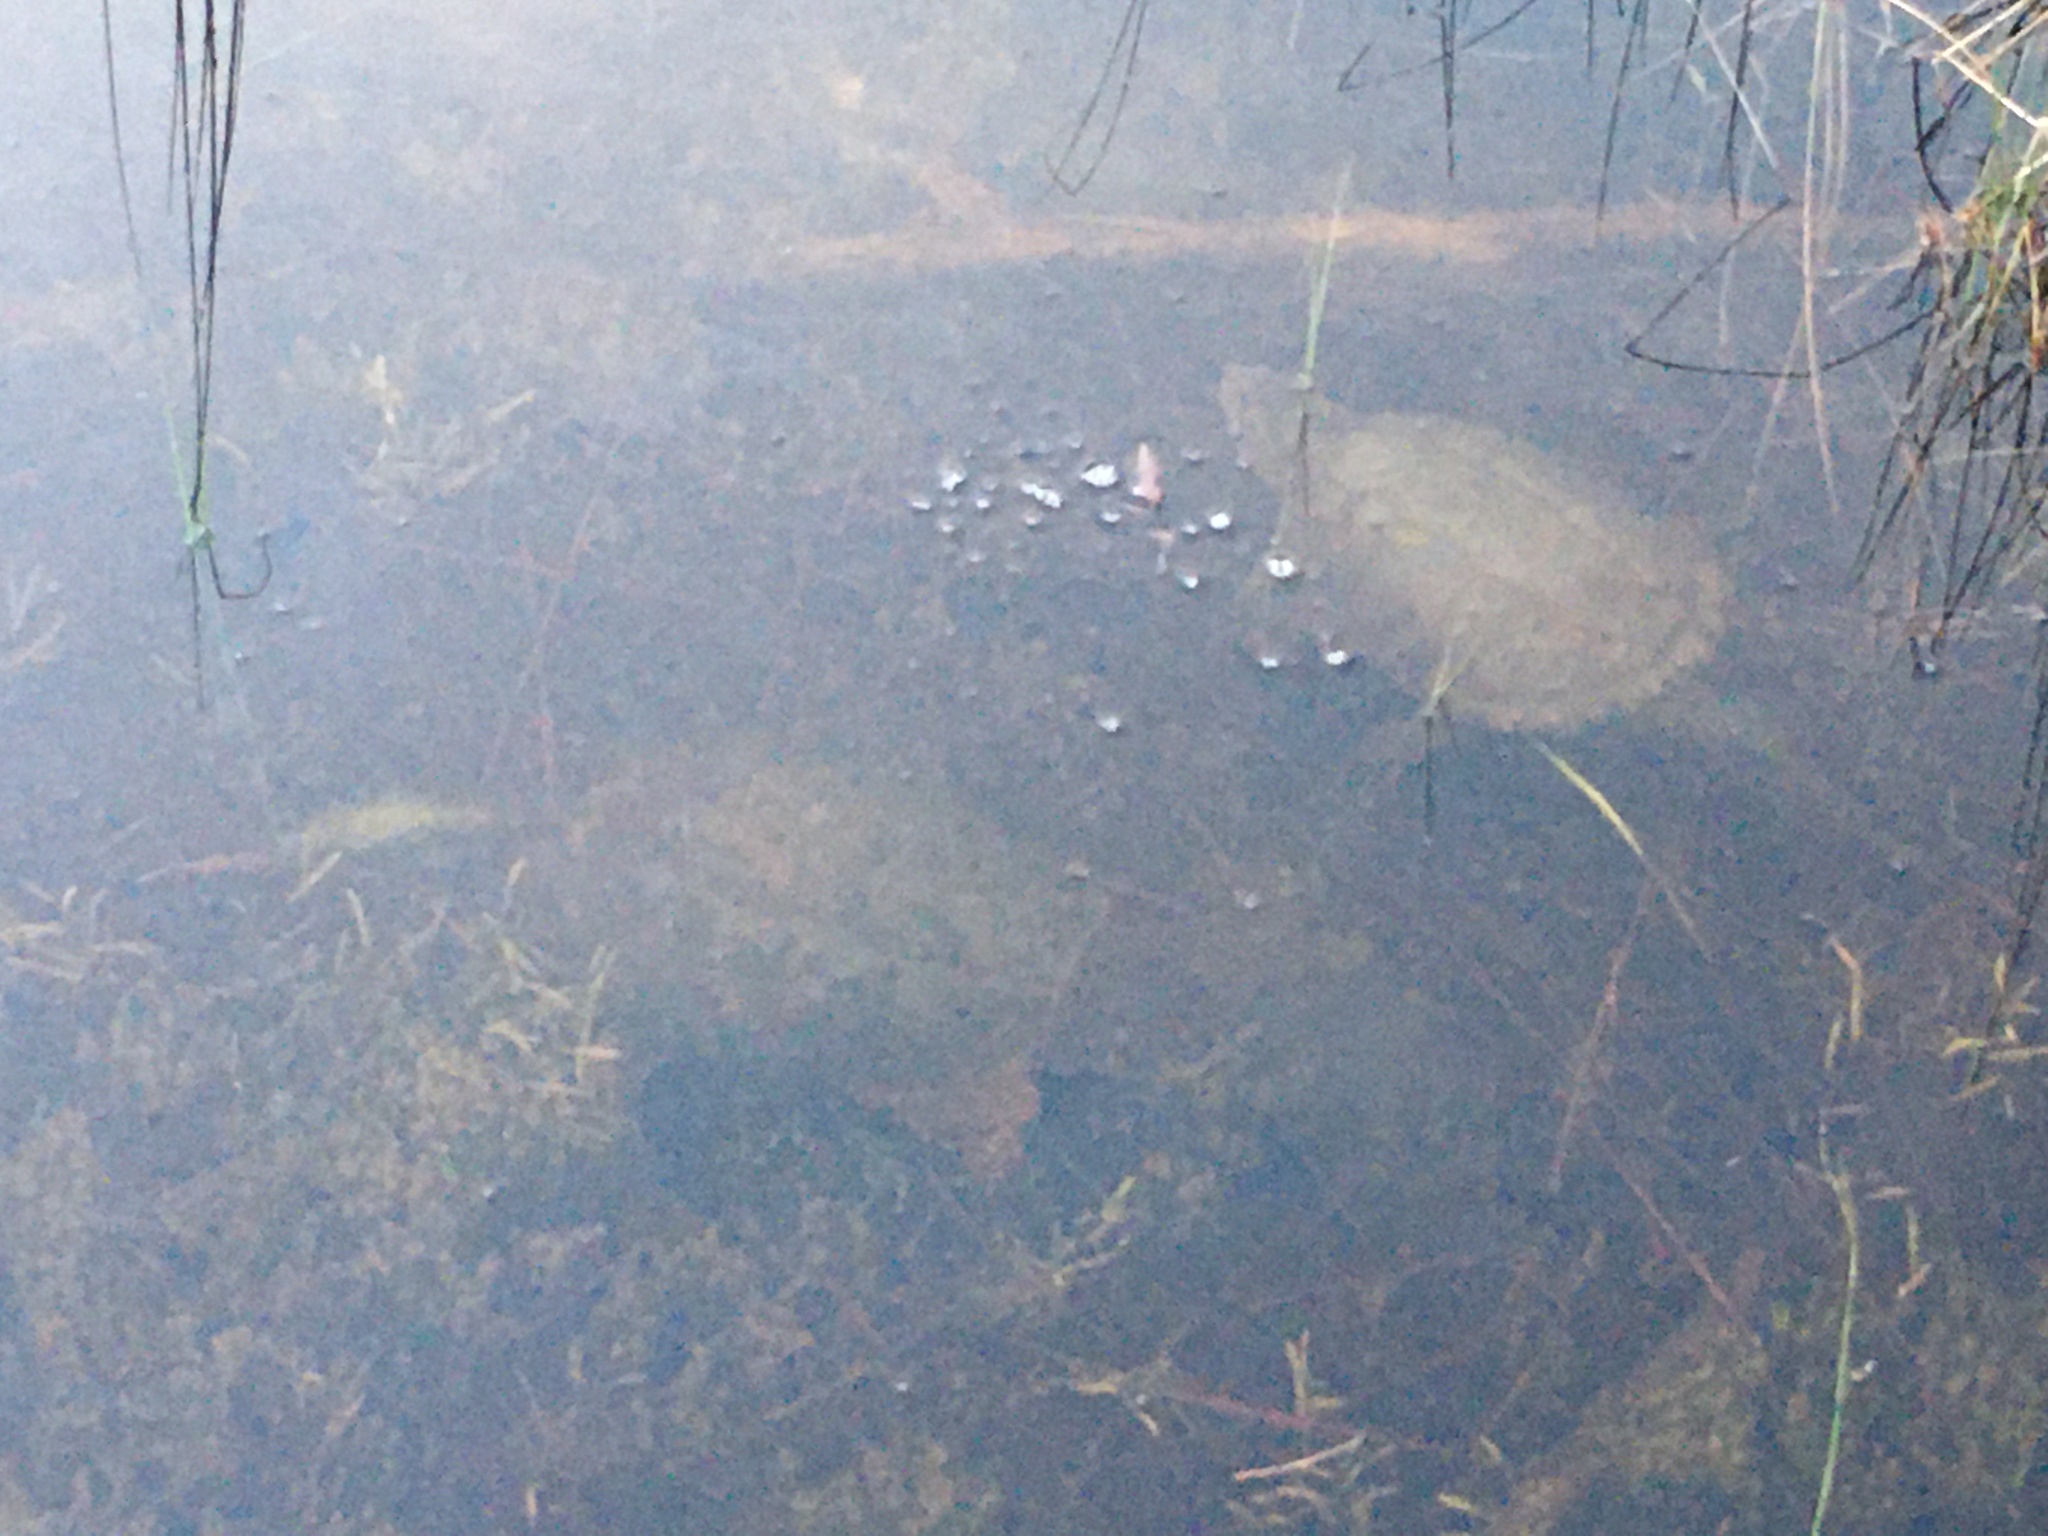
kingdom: Animalia
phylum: Chordata
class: Testudines
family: Chelydridae
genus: Chelydra
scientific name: Chelydra serpentina
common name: Common snapping turtle
